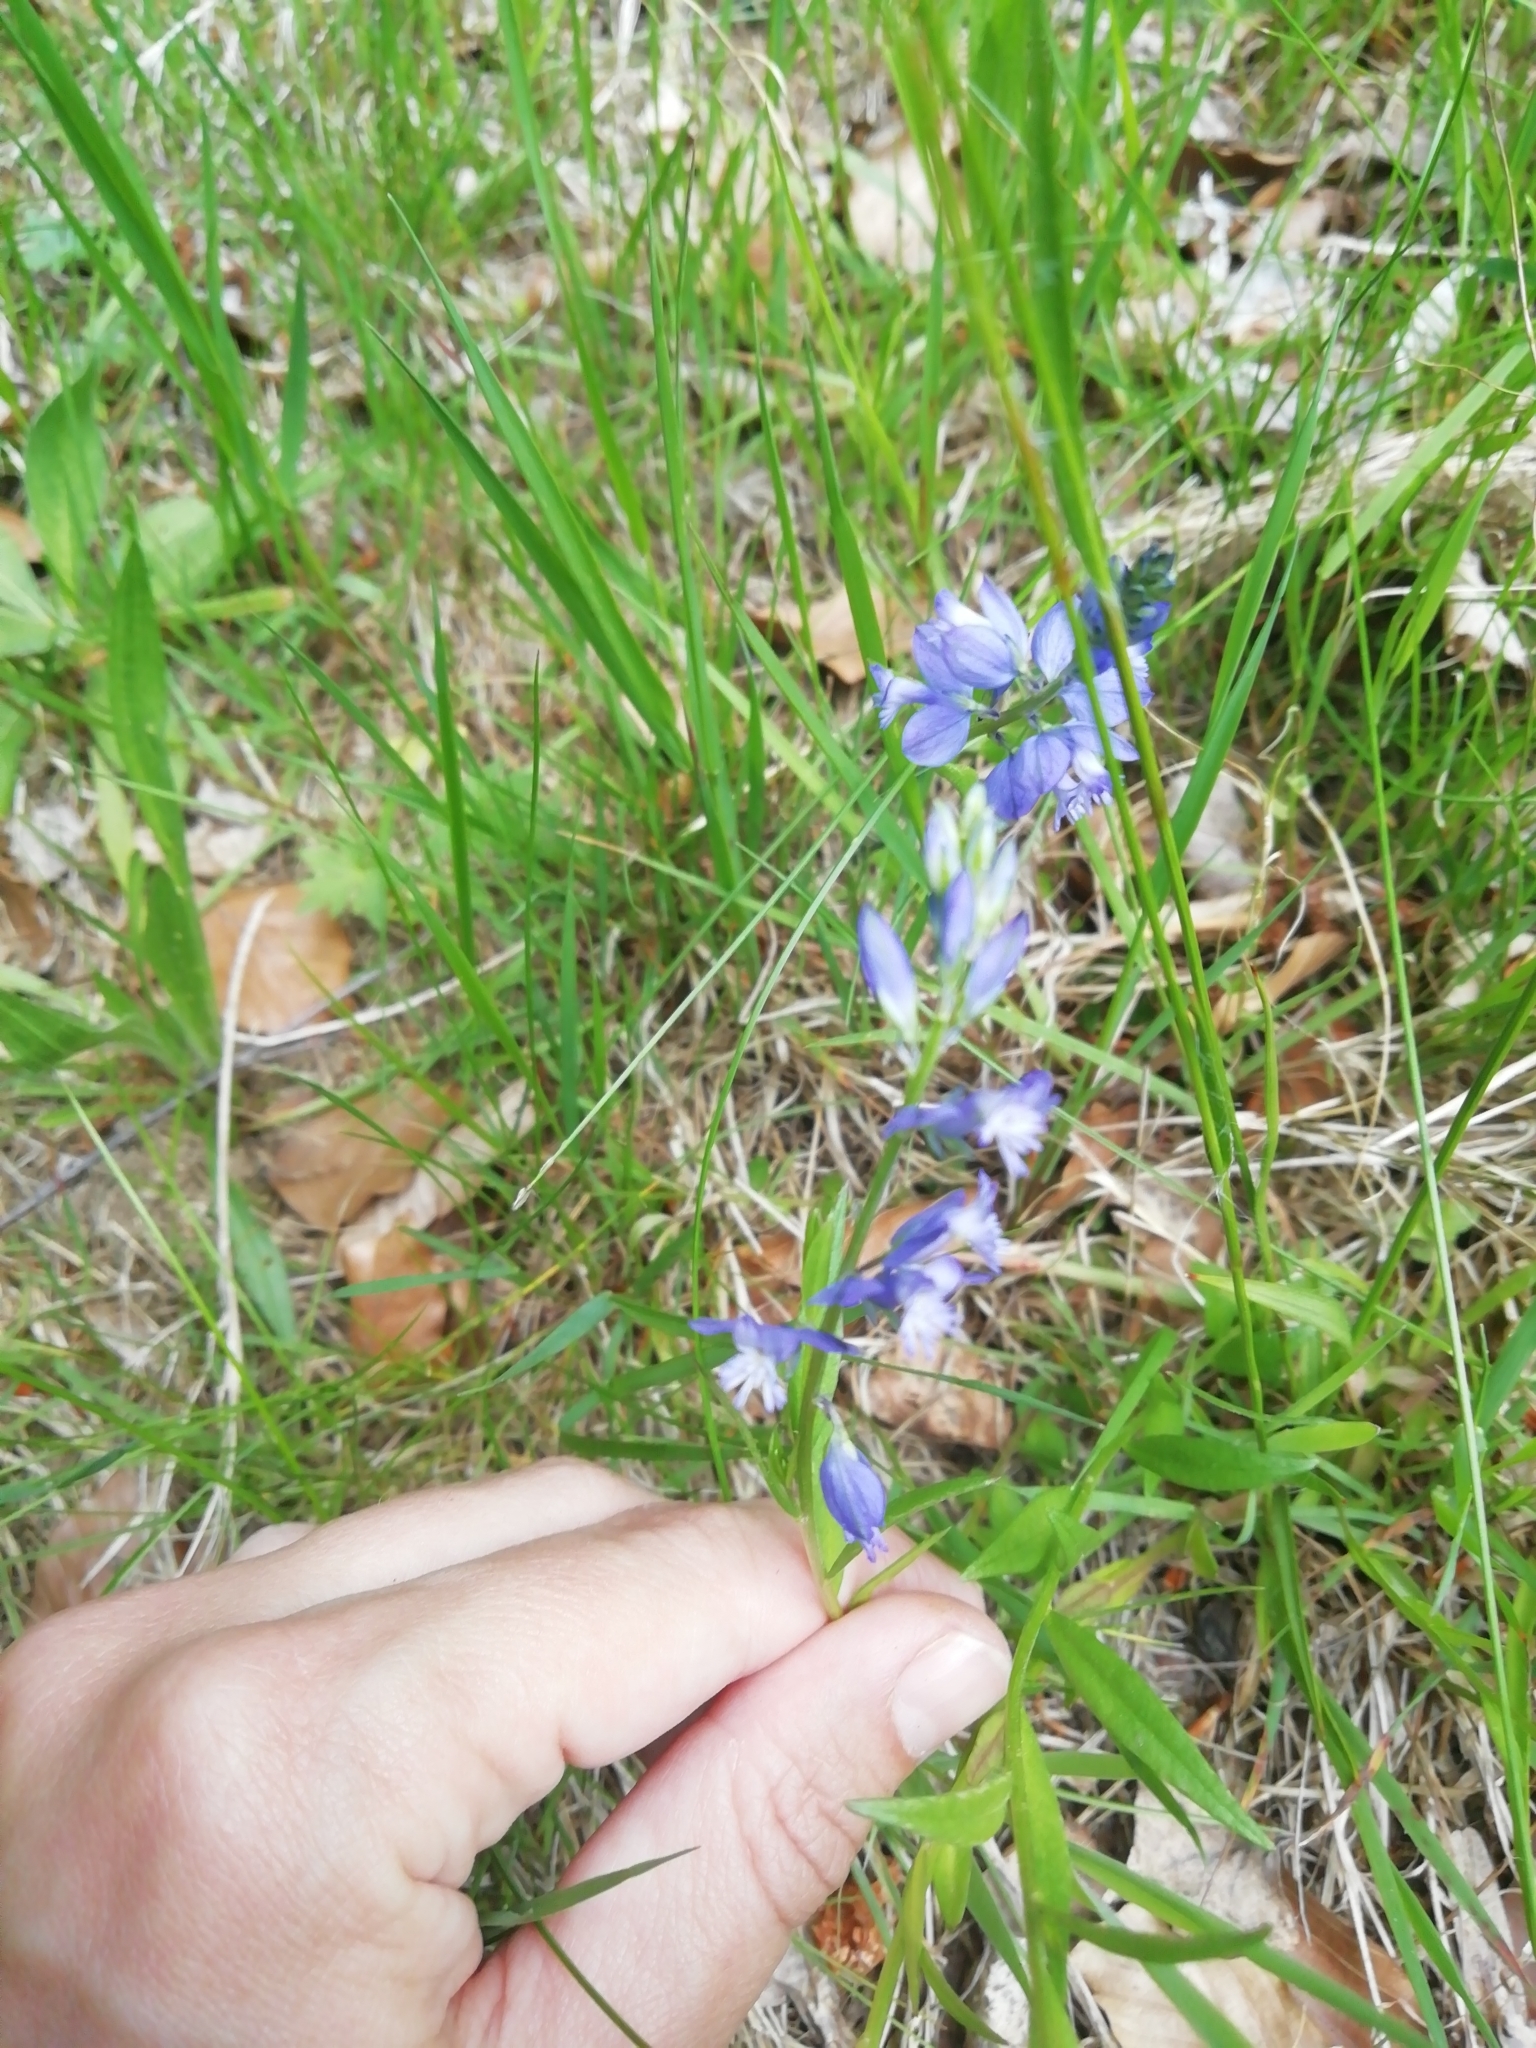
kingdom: Plantae
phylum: Tracheophyta
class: Magnoliopsida
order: Fabales
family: Polygalaceae
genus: Polygala
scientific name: Polygala vulgaris
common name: Common milkwort
